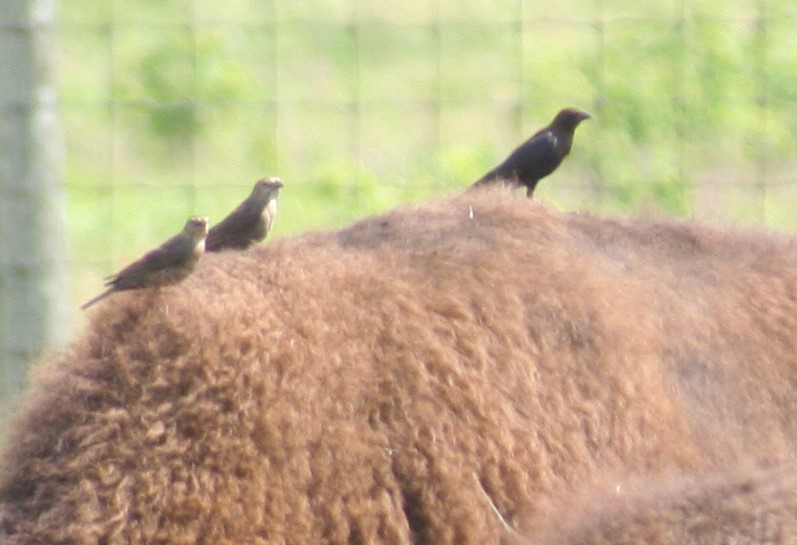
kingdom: Animalia
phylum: Chordata
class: Aves
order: Passeriformes
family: Icteridae
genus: Molothrus
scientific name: Molothrus ater
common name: Brown-headed cowbird
